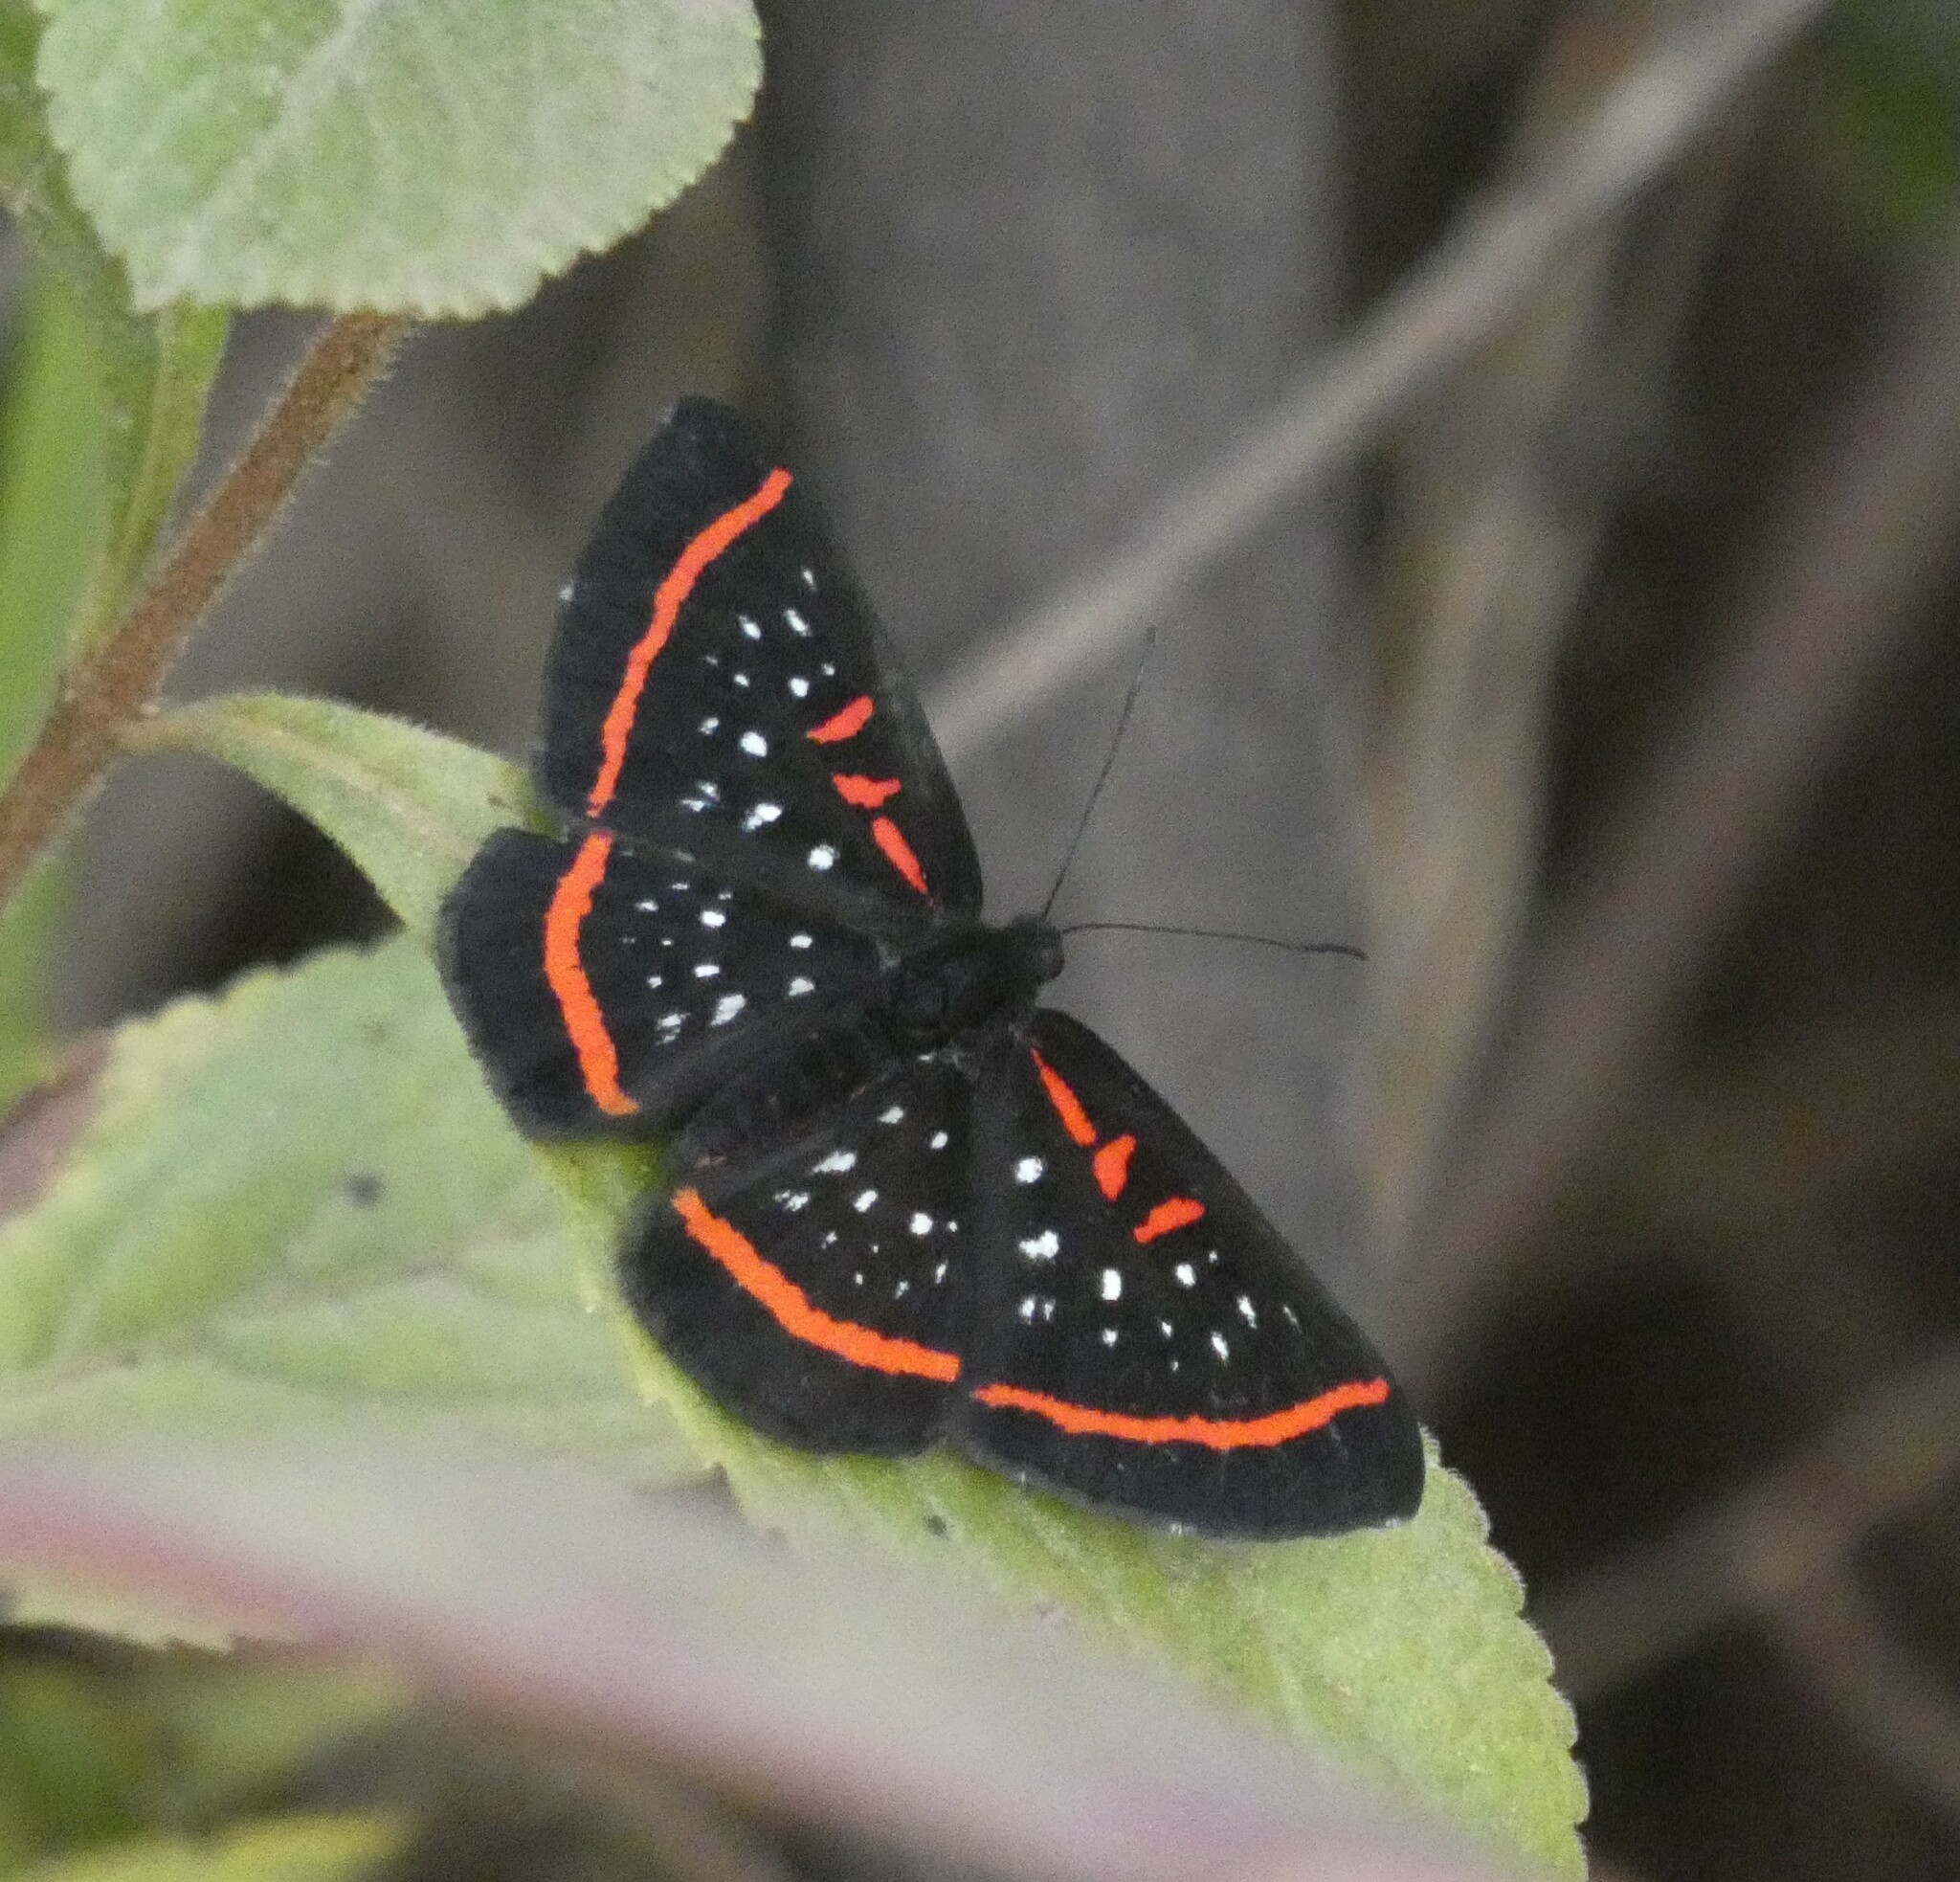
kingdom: Animalia
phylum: Arthropoda
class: Insecta
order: Lepidoptera
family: Riodinidae
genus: Amarynthis
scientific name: Amarynthis meneria
